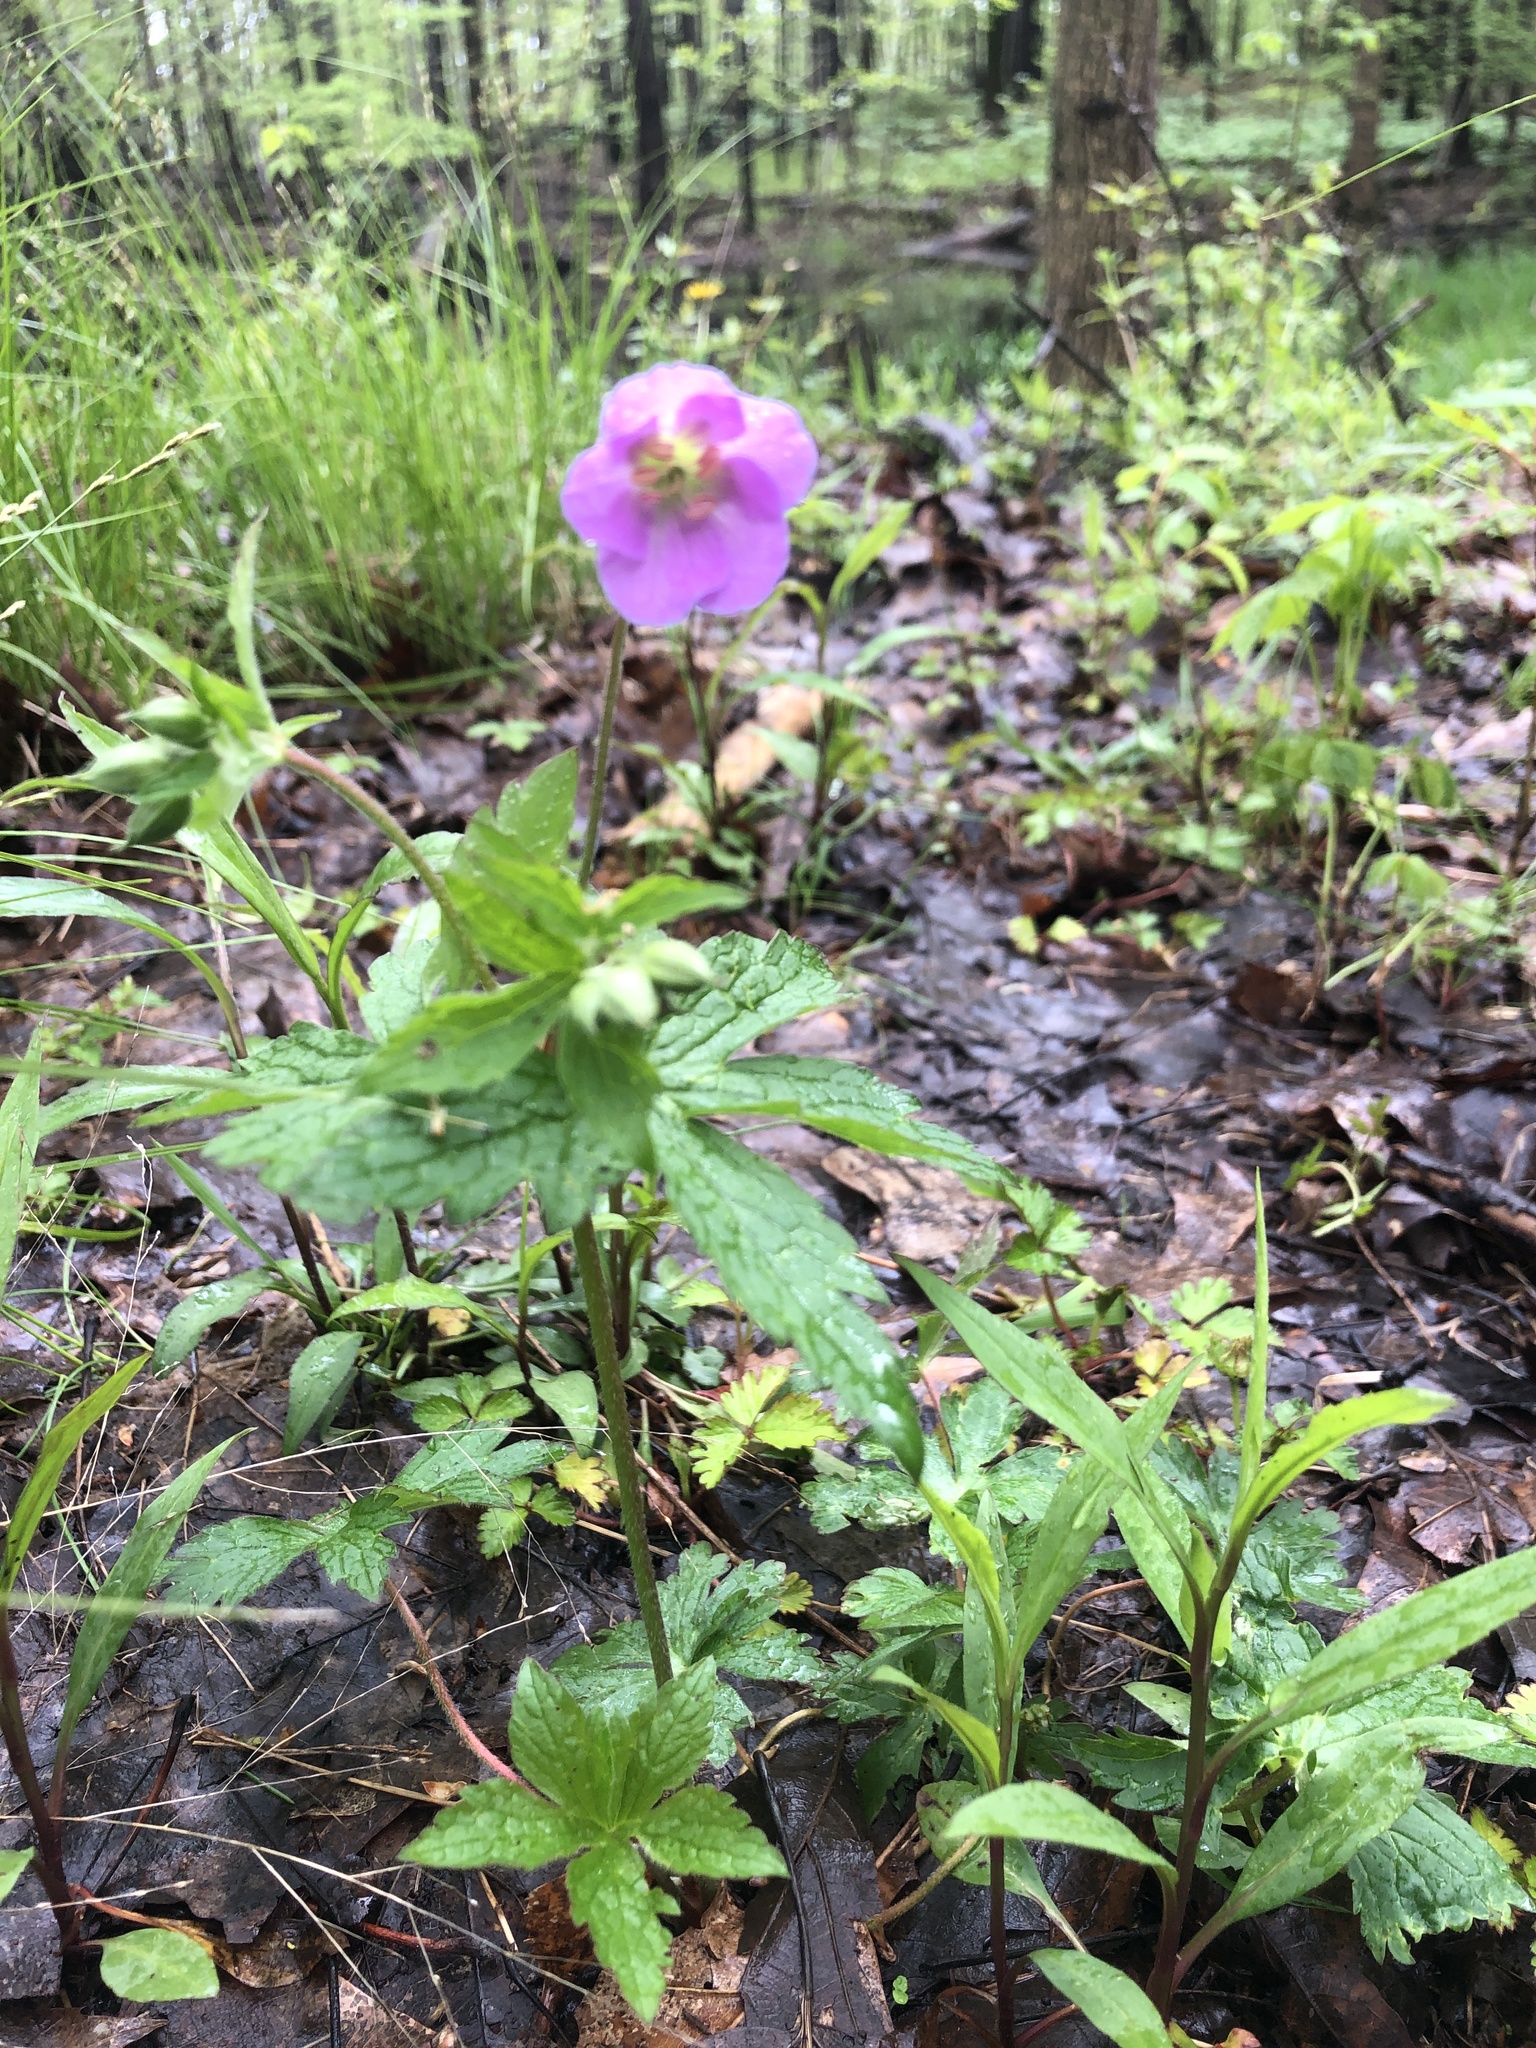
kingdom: Plantae
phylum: Tracheophyta
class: Magnoliopsida
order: Geraniales
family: Geraniaceae
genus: Geranium
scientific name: Geranium maculatum
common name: Spotted geranium
